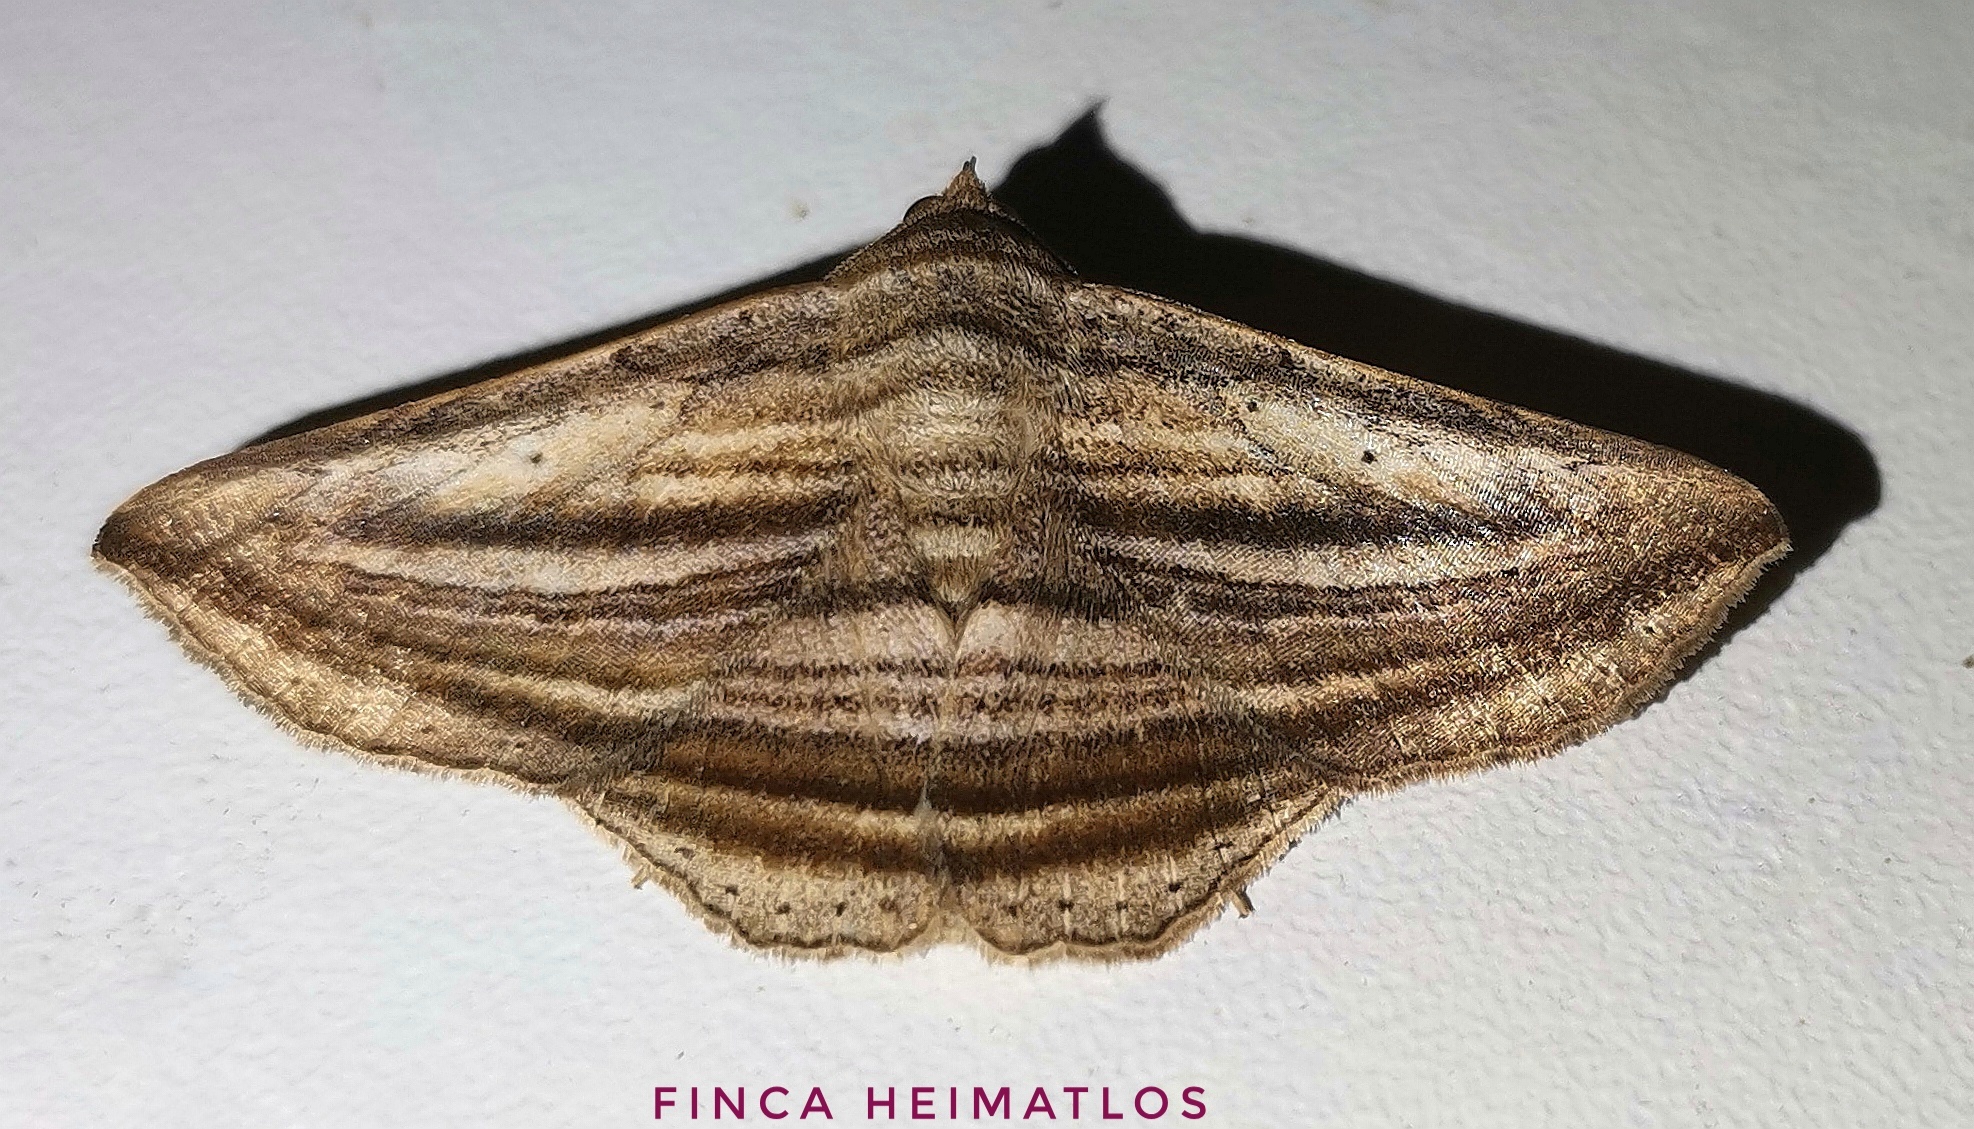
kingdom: Animalia
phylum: Arthropoda
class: Insecta
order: Lepidoptera
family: Erebidae
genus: Itomia
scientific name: Itomia multilinea
